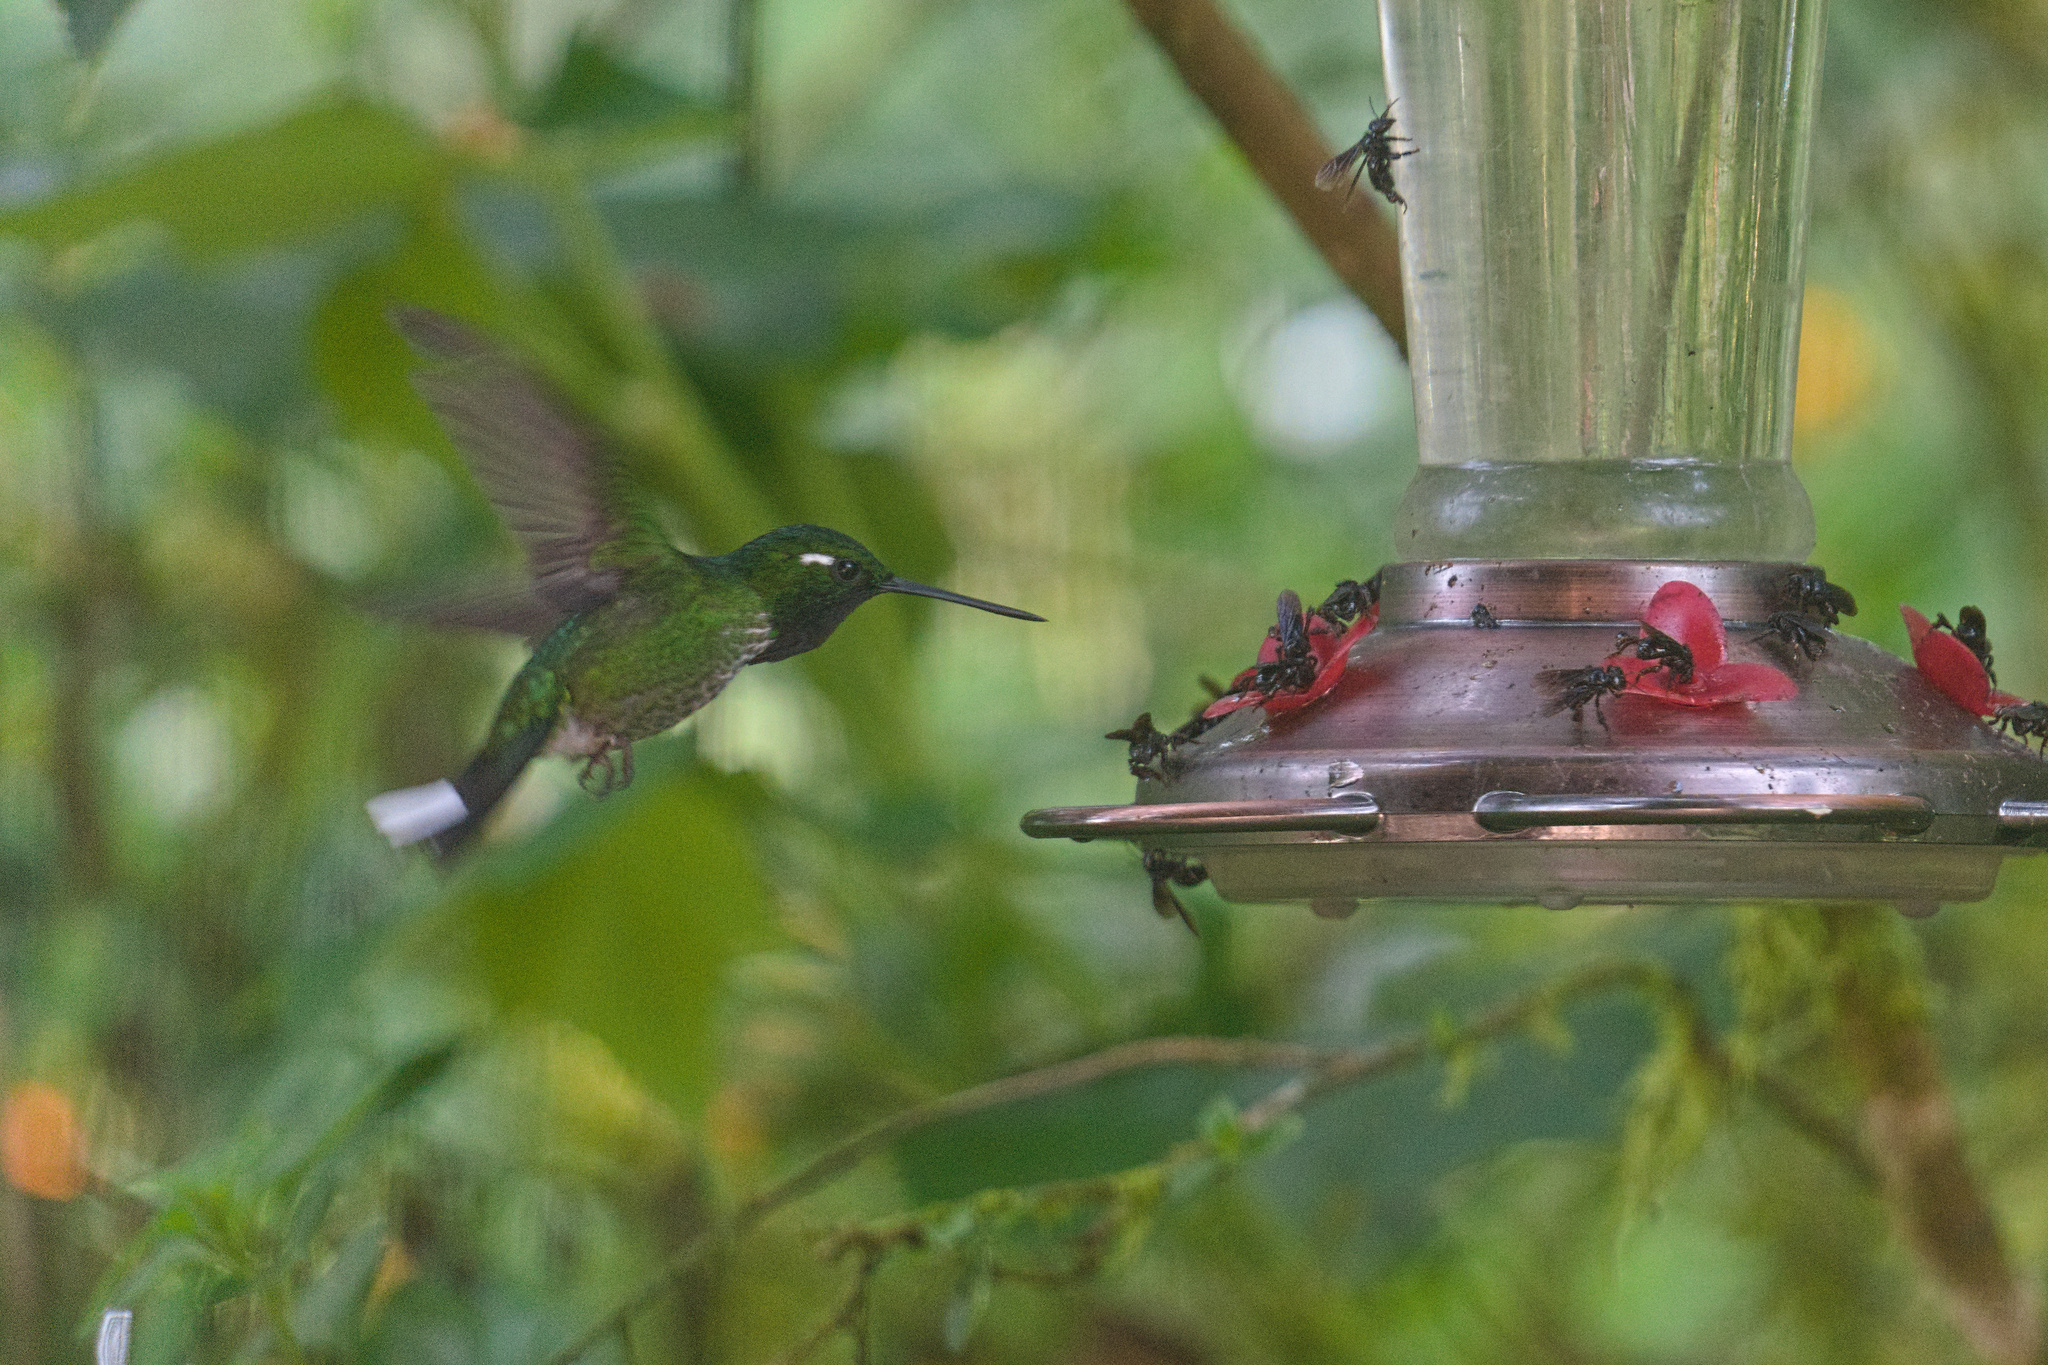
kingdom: Animalia
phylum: Chordata
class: Aves
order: Apodiformes
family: Trochilidae
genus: Urosticte
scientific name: Urosticte benjamini
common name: Purple-bibbed whitetip
